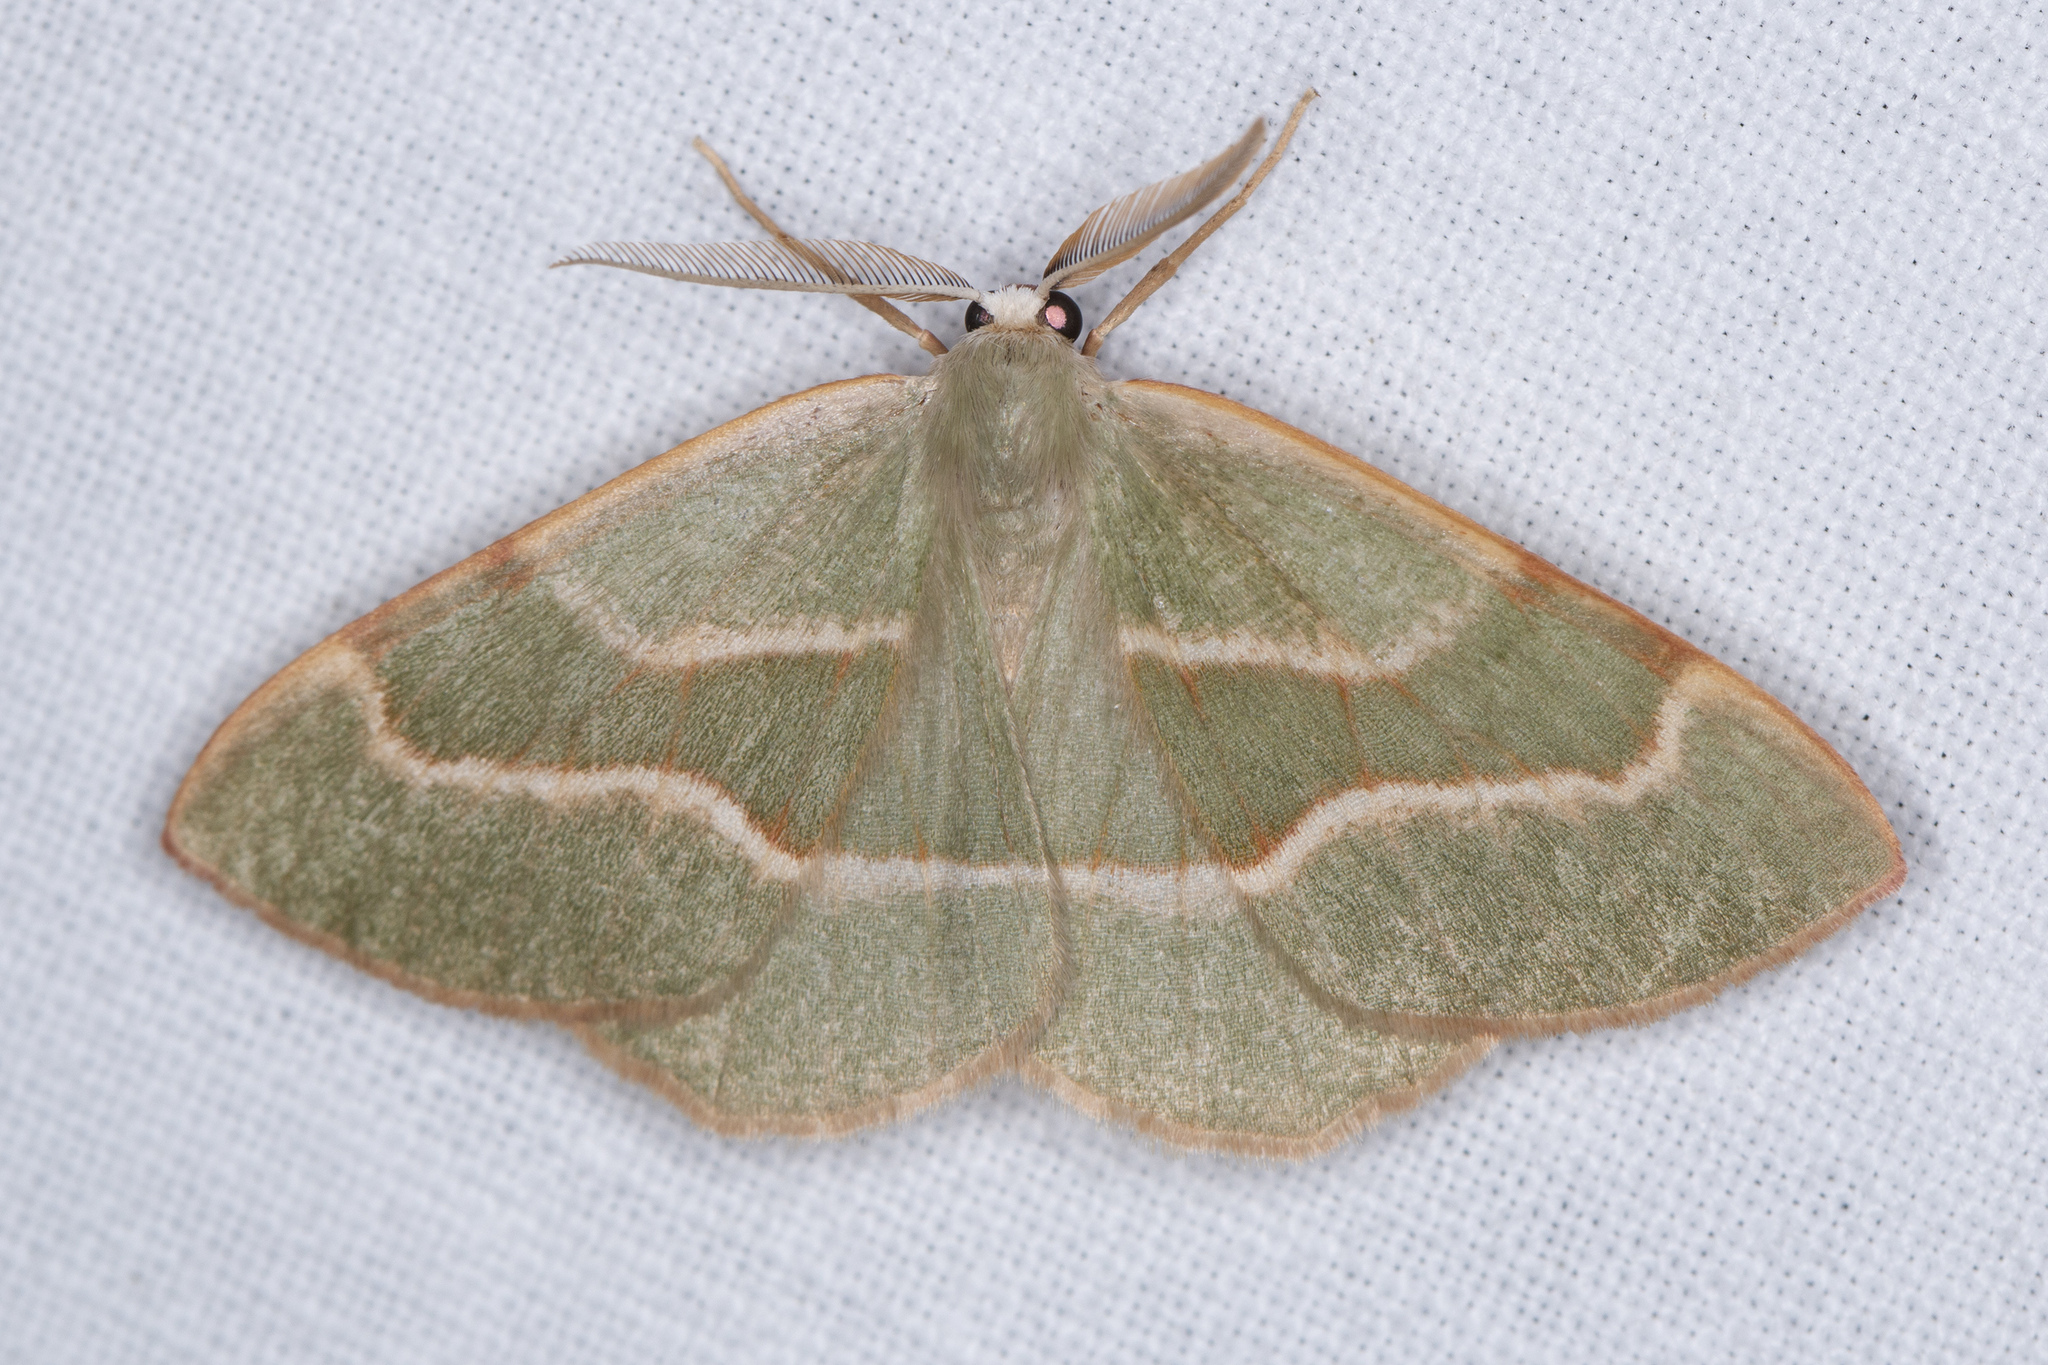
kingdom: Animalia
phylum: Arthropoda
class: Insecta
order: Lepidoptera
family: Geometridae
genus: Hylaea
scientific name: Hylaea fasciaria
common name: Barred red
